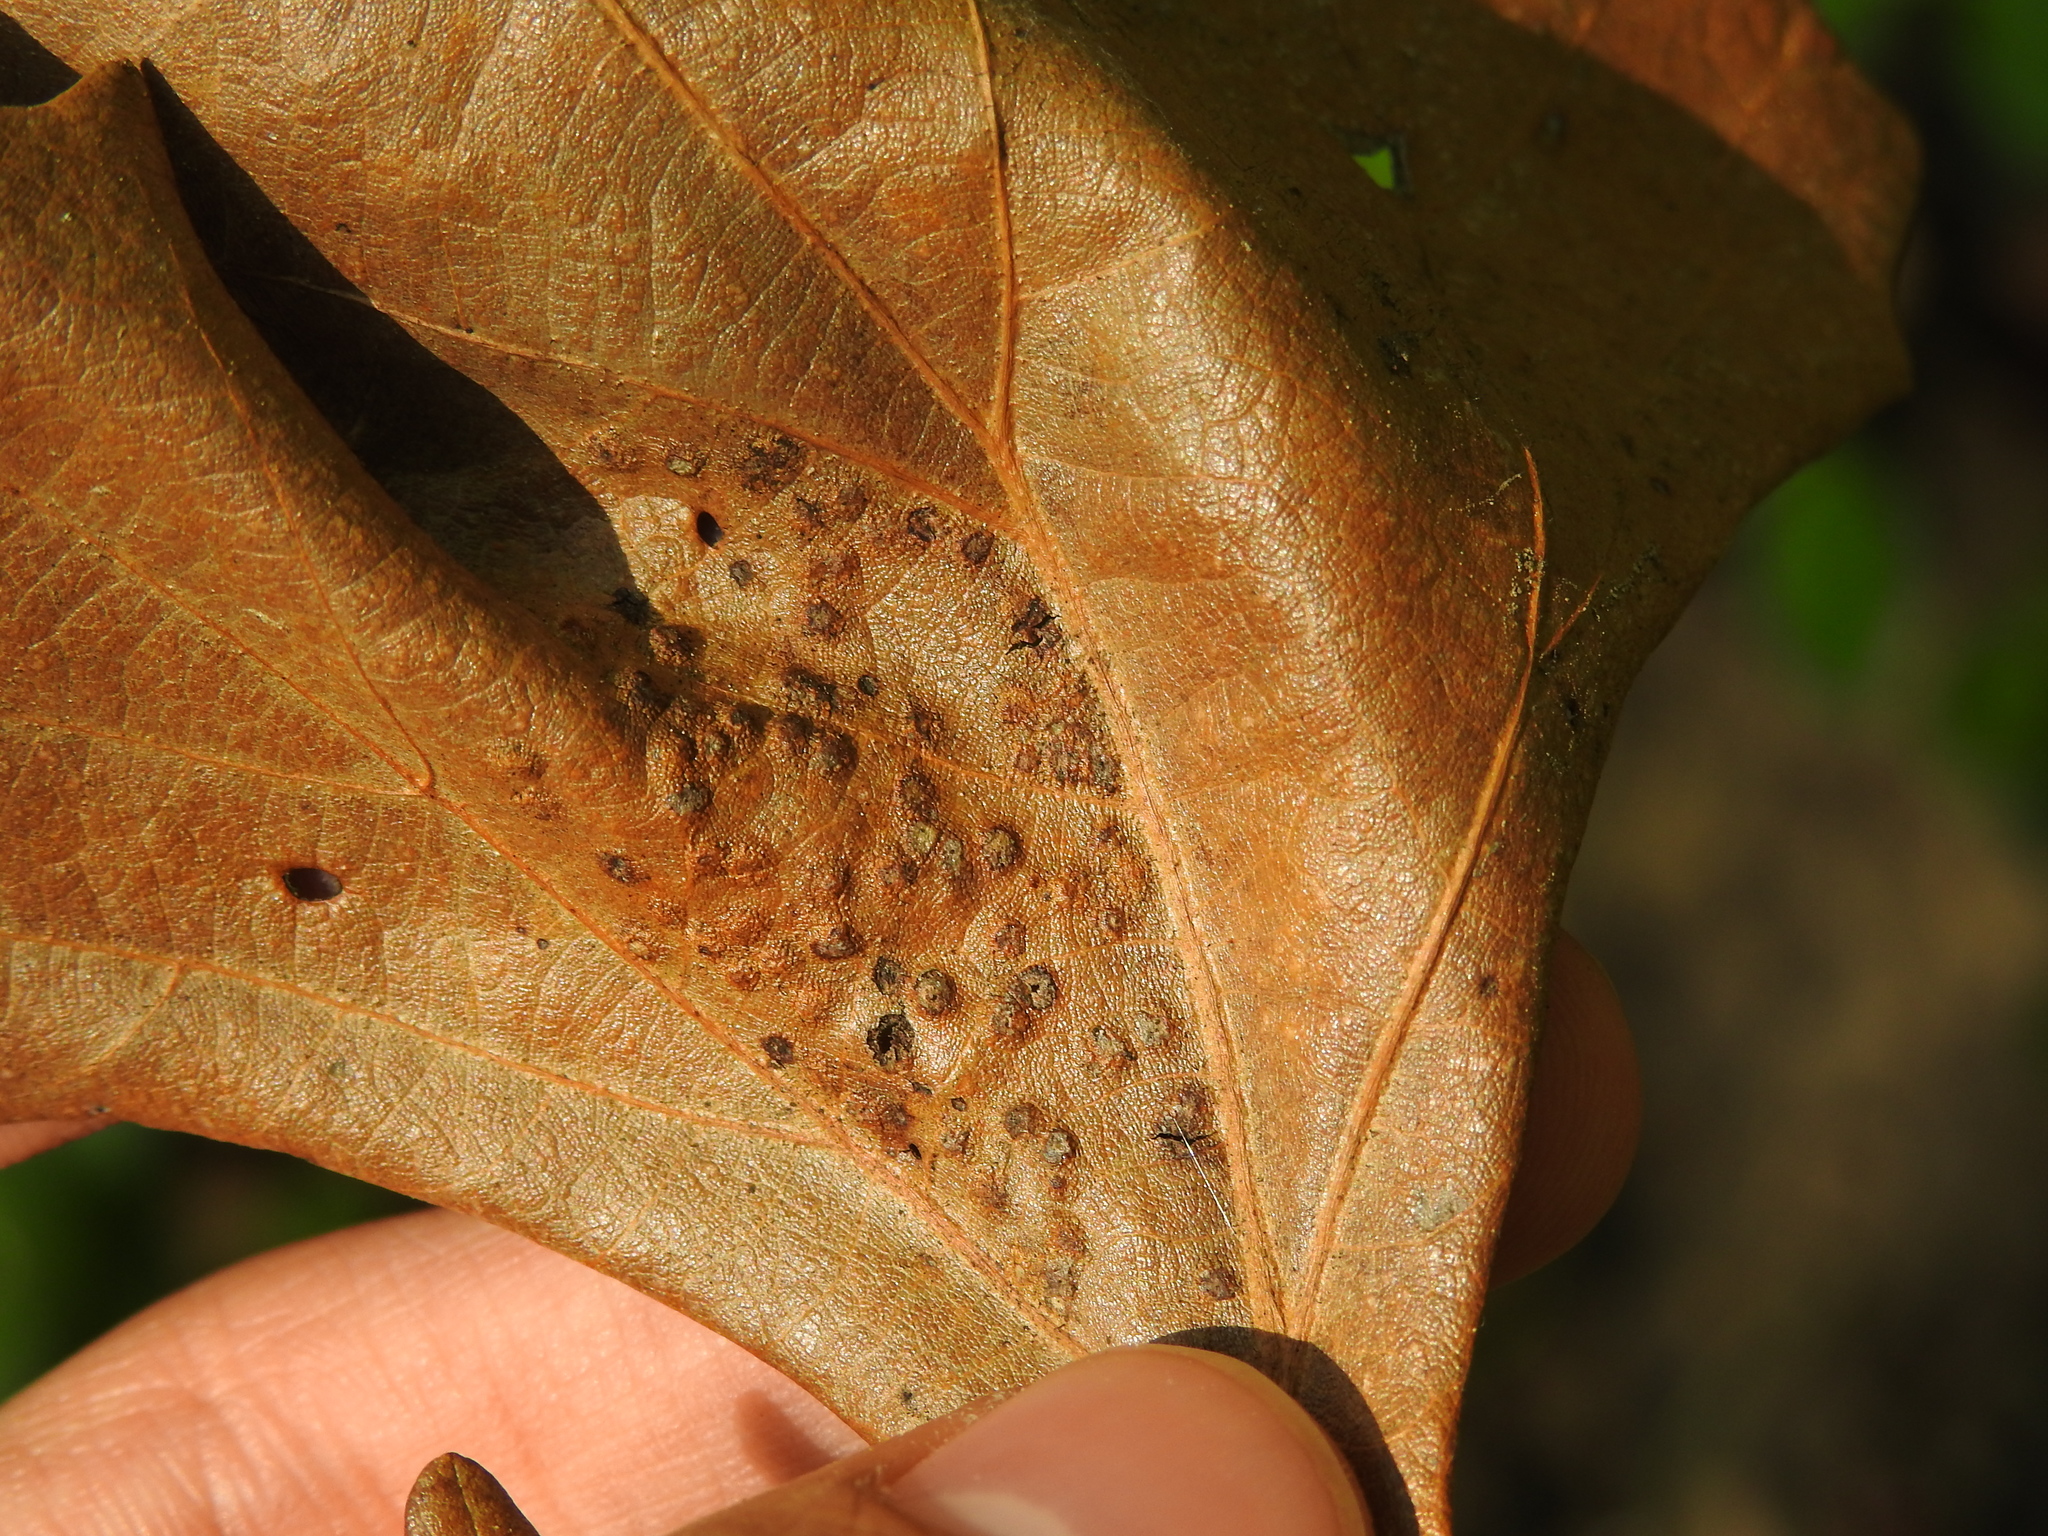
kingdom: Animalia
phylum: Arthropoda
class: Insecta
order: Hymenoptera
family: Cynipidae
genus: Neuroterus
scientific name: Neuroterus saltarius
